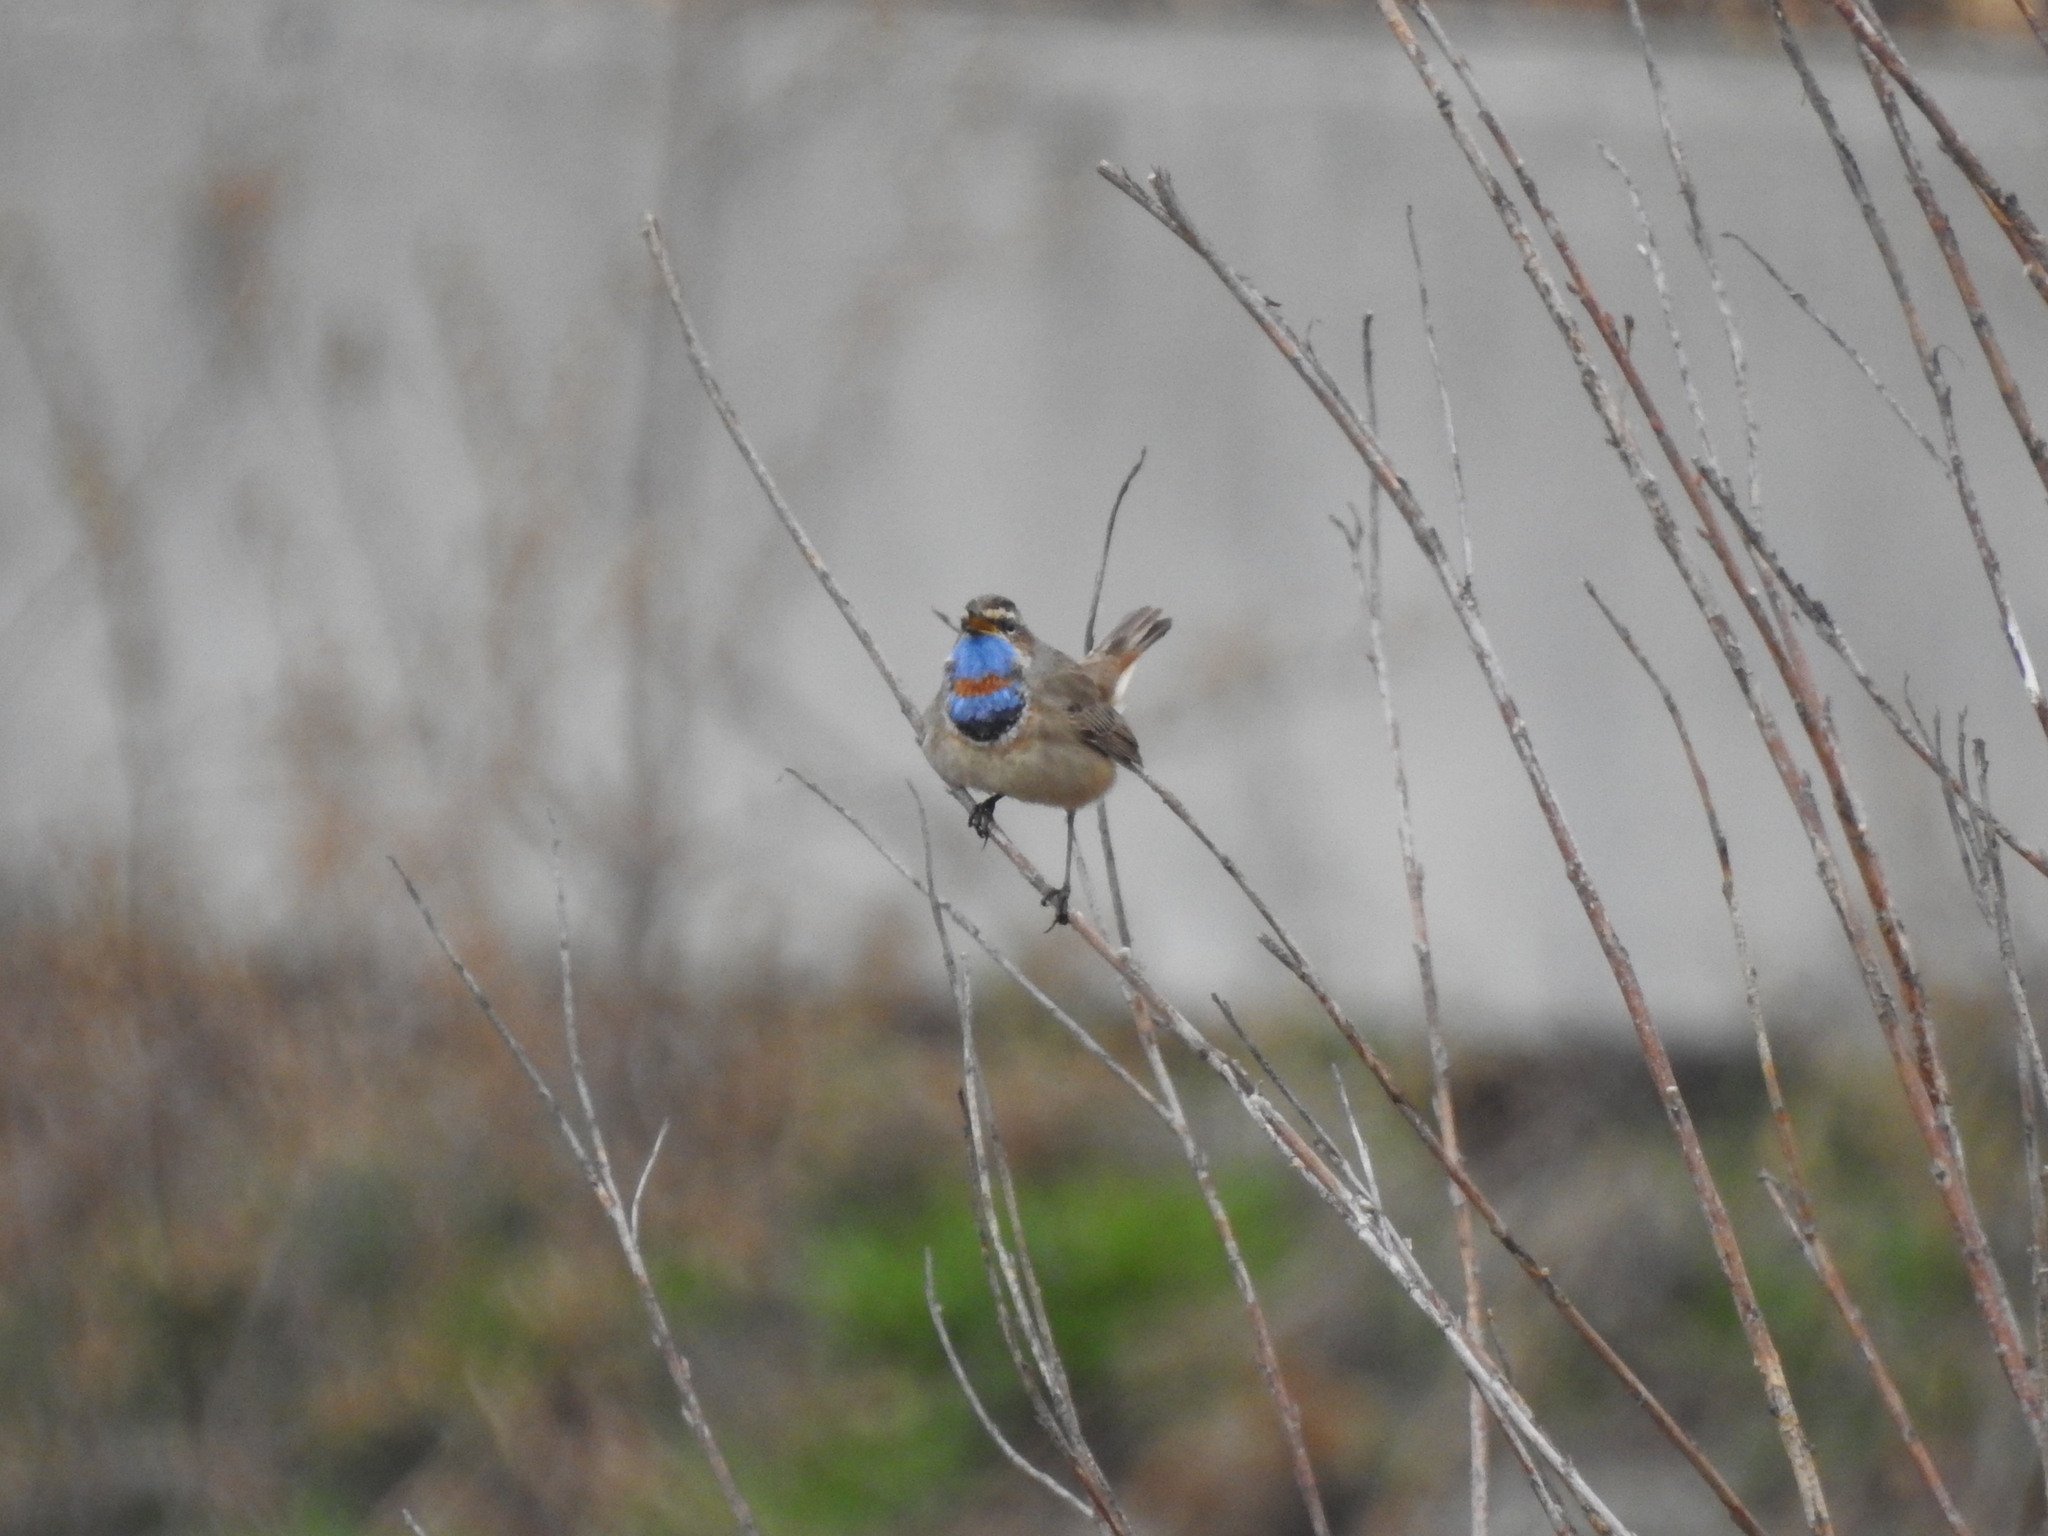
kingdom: Animalia
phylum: Chordata
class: Aves
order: Passeriformes
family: Muscicapidae
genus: Luscinia
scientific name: Luscinia svecica
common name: Bluethroat
